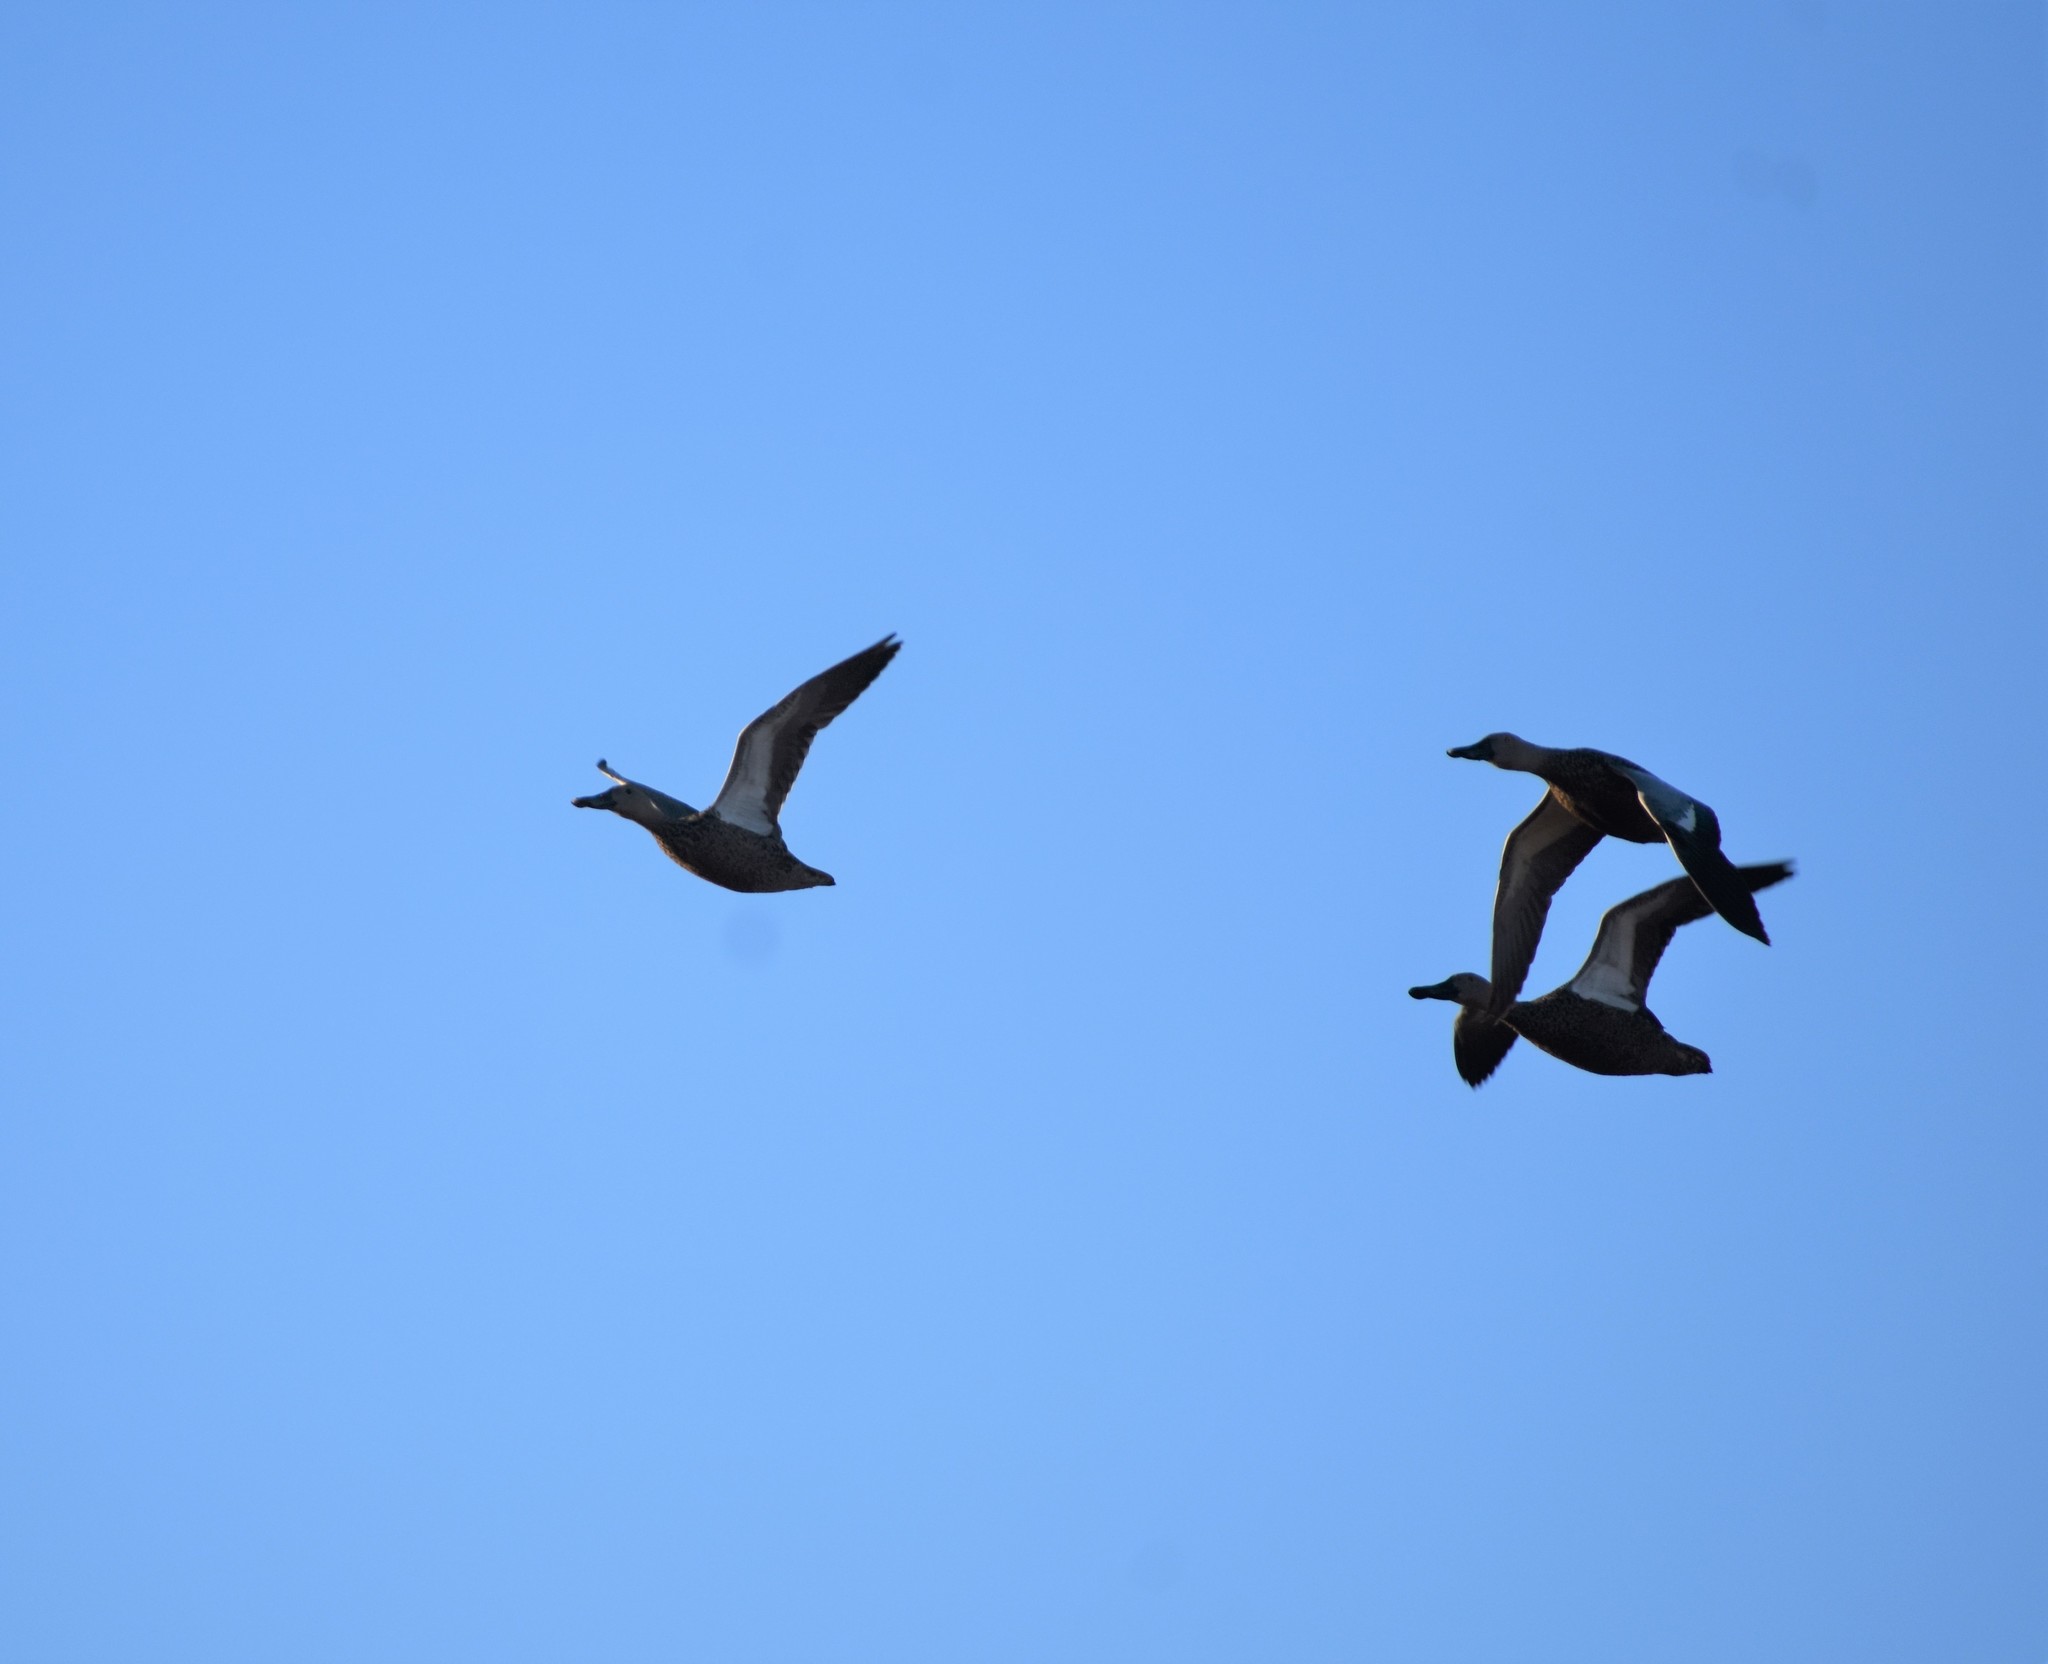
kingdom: Animalia
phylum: Chordata
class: Aves
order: Anseriformes
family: Anatidae
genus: Spatula
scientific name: Spatula smithii
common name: Cape shoveler
